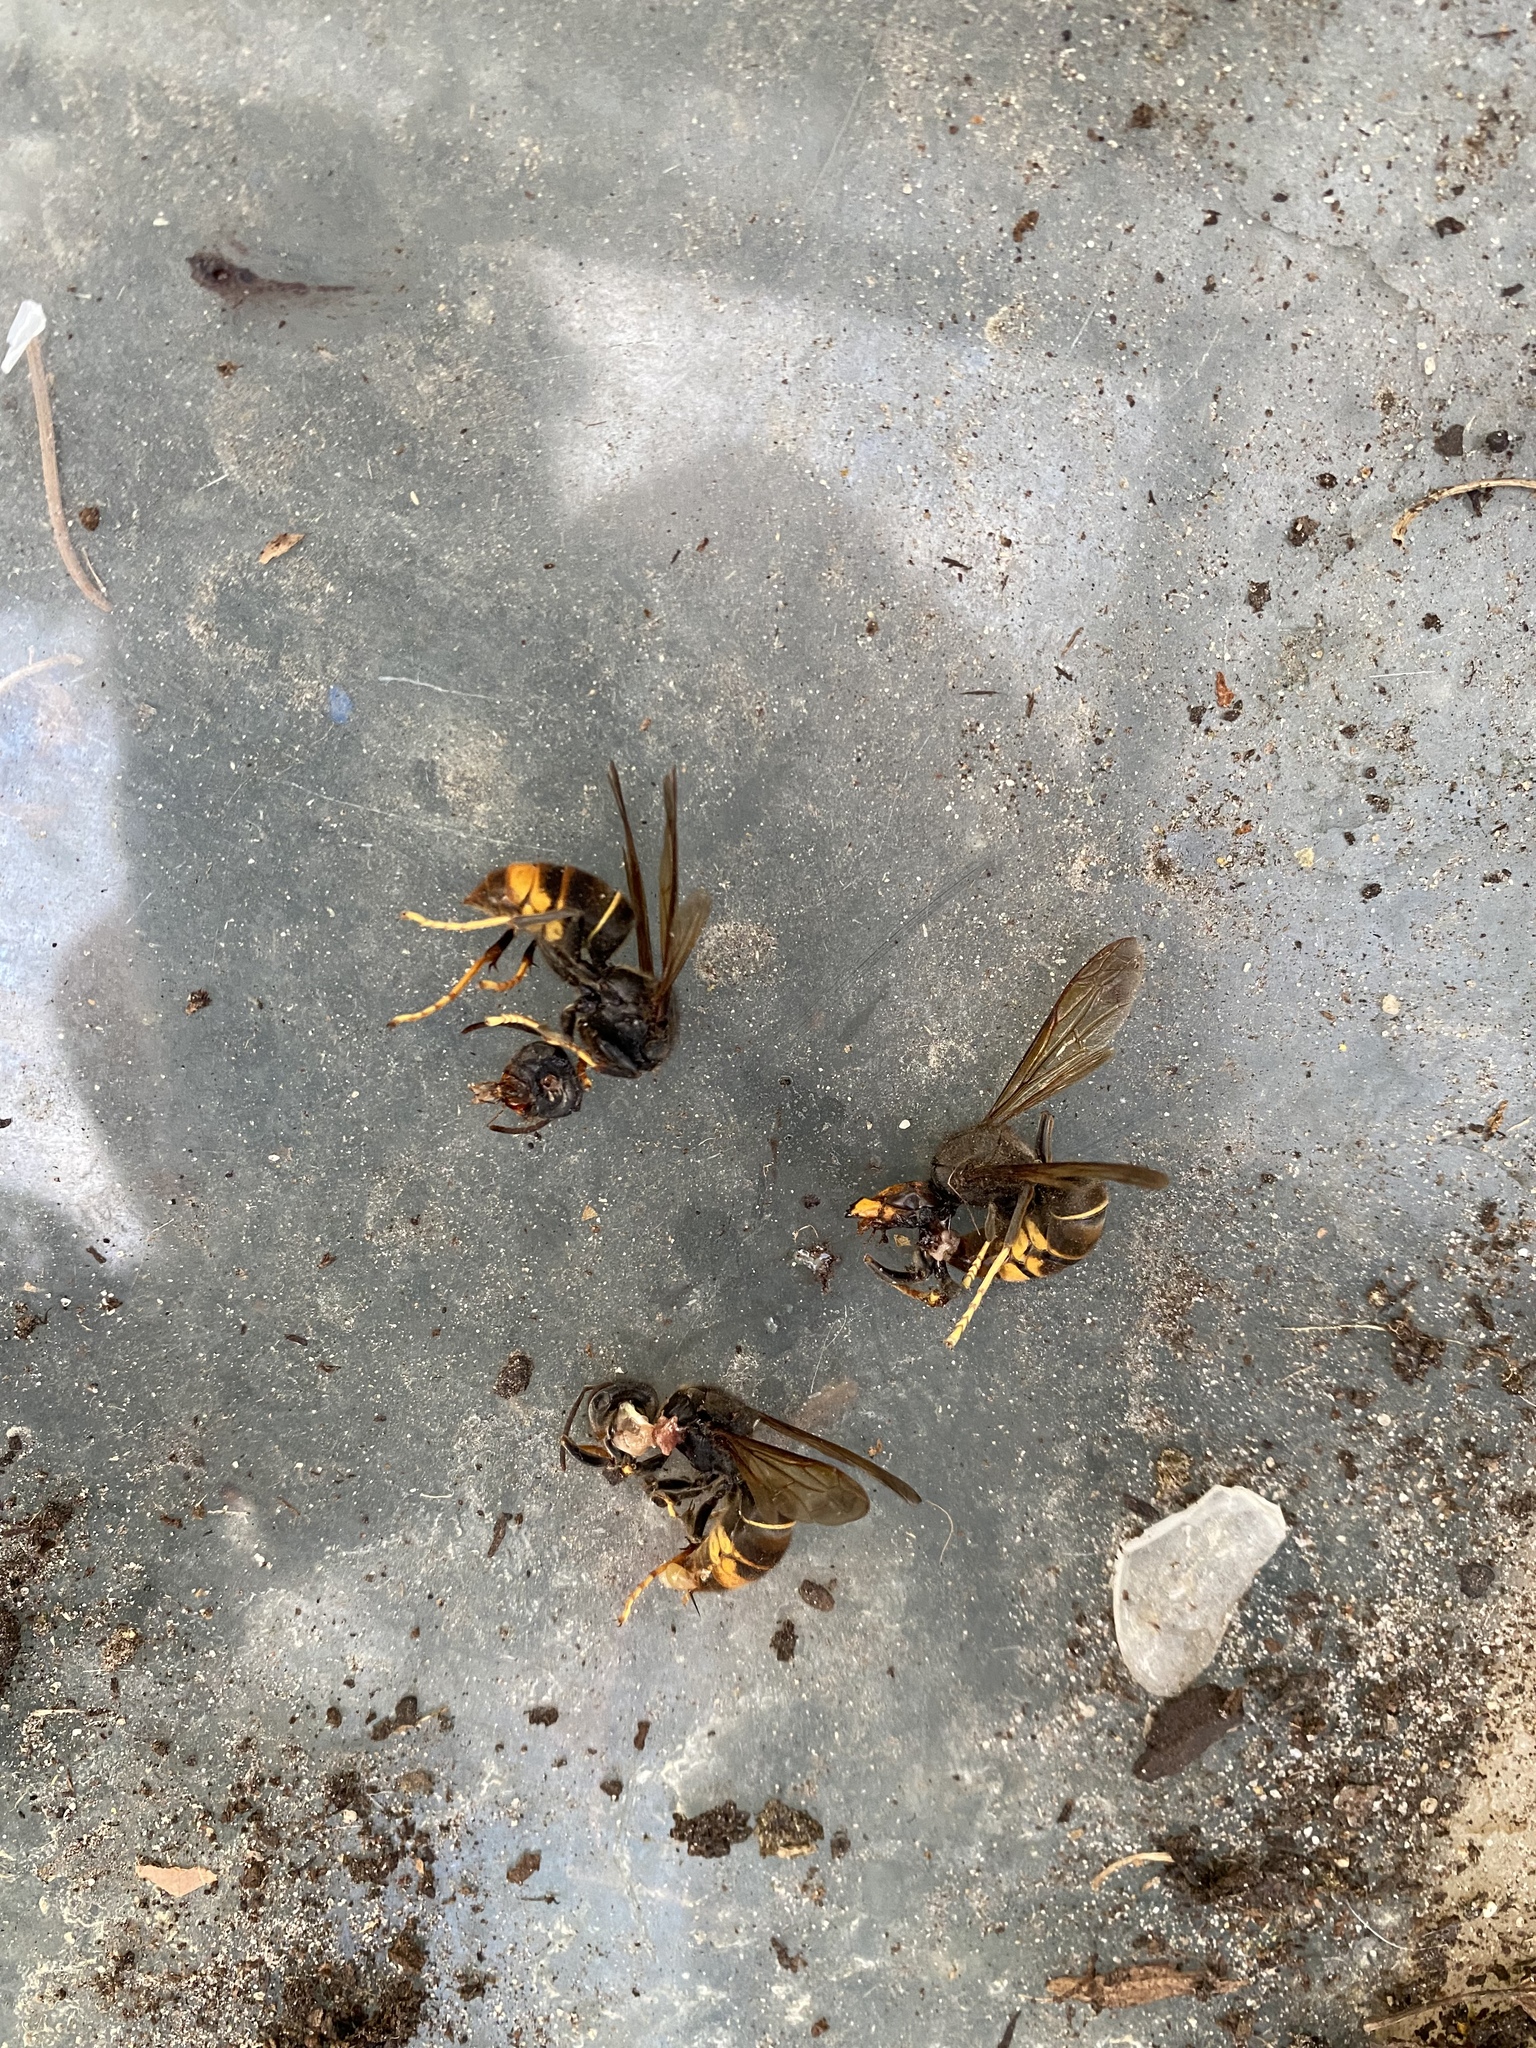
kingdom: Animalia
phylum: Arthropoda
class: Insecta
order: Hymenoptera
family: Vespidae
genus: Vespa
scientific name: Vespa velutina
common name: Asian hornet
